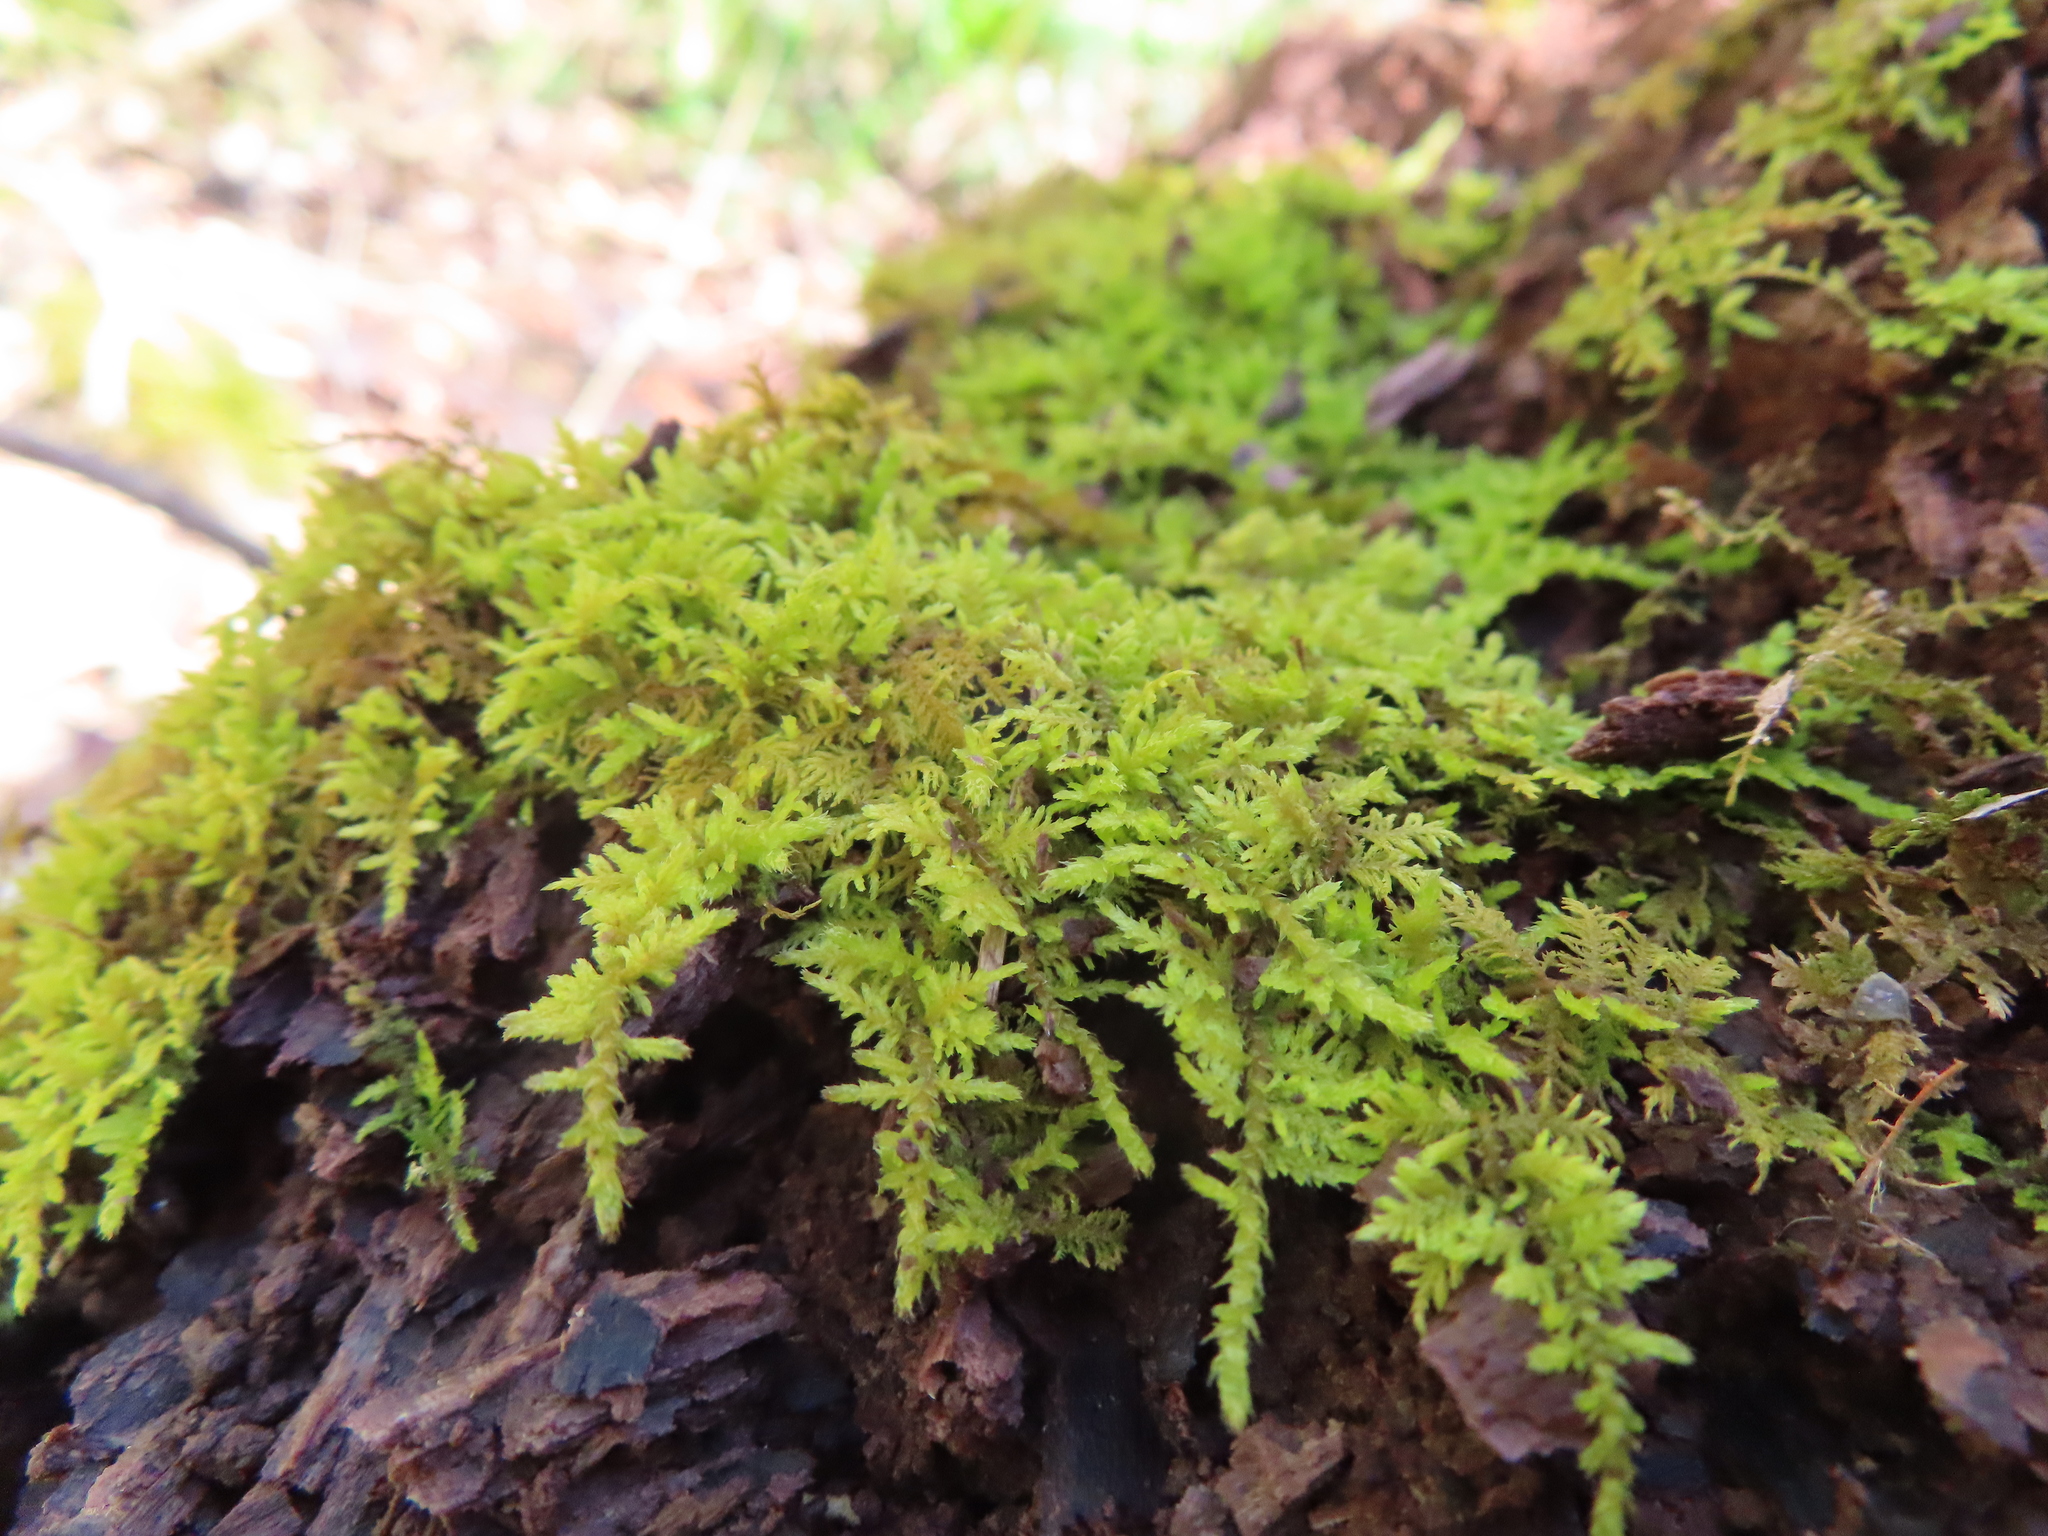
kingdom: Plantae
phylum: Bryophyta
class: Bryopsida
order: Hypnales
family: Thuidiaceae
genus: Thuidium
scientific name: Thuidium delicatulum
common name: Delicate fern moss
